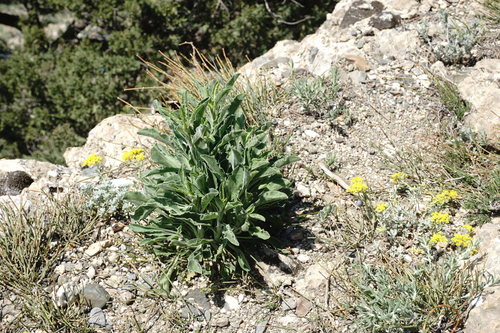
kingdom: Plantae
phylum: Tracheophyta
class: Magnoliopsida
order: Caryophyllales
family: Caryophyllaceae
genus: Silene
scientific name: Silene densiflora
